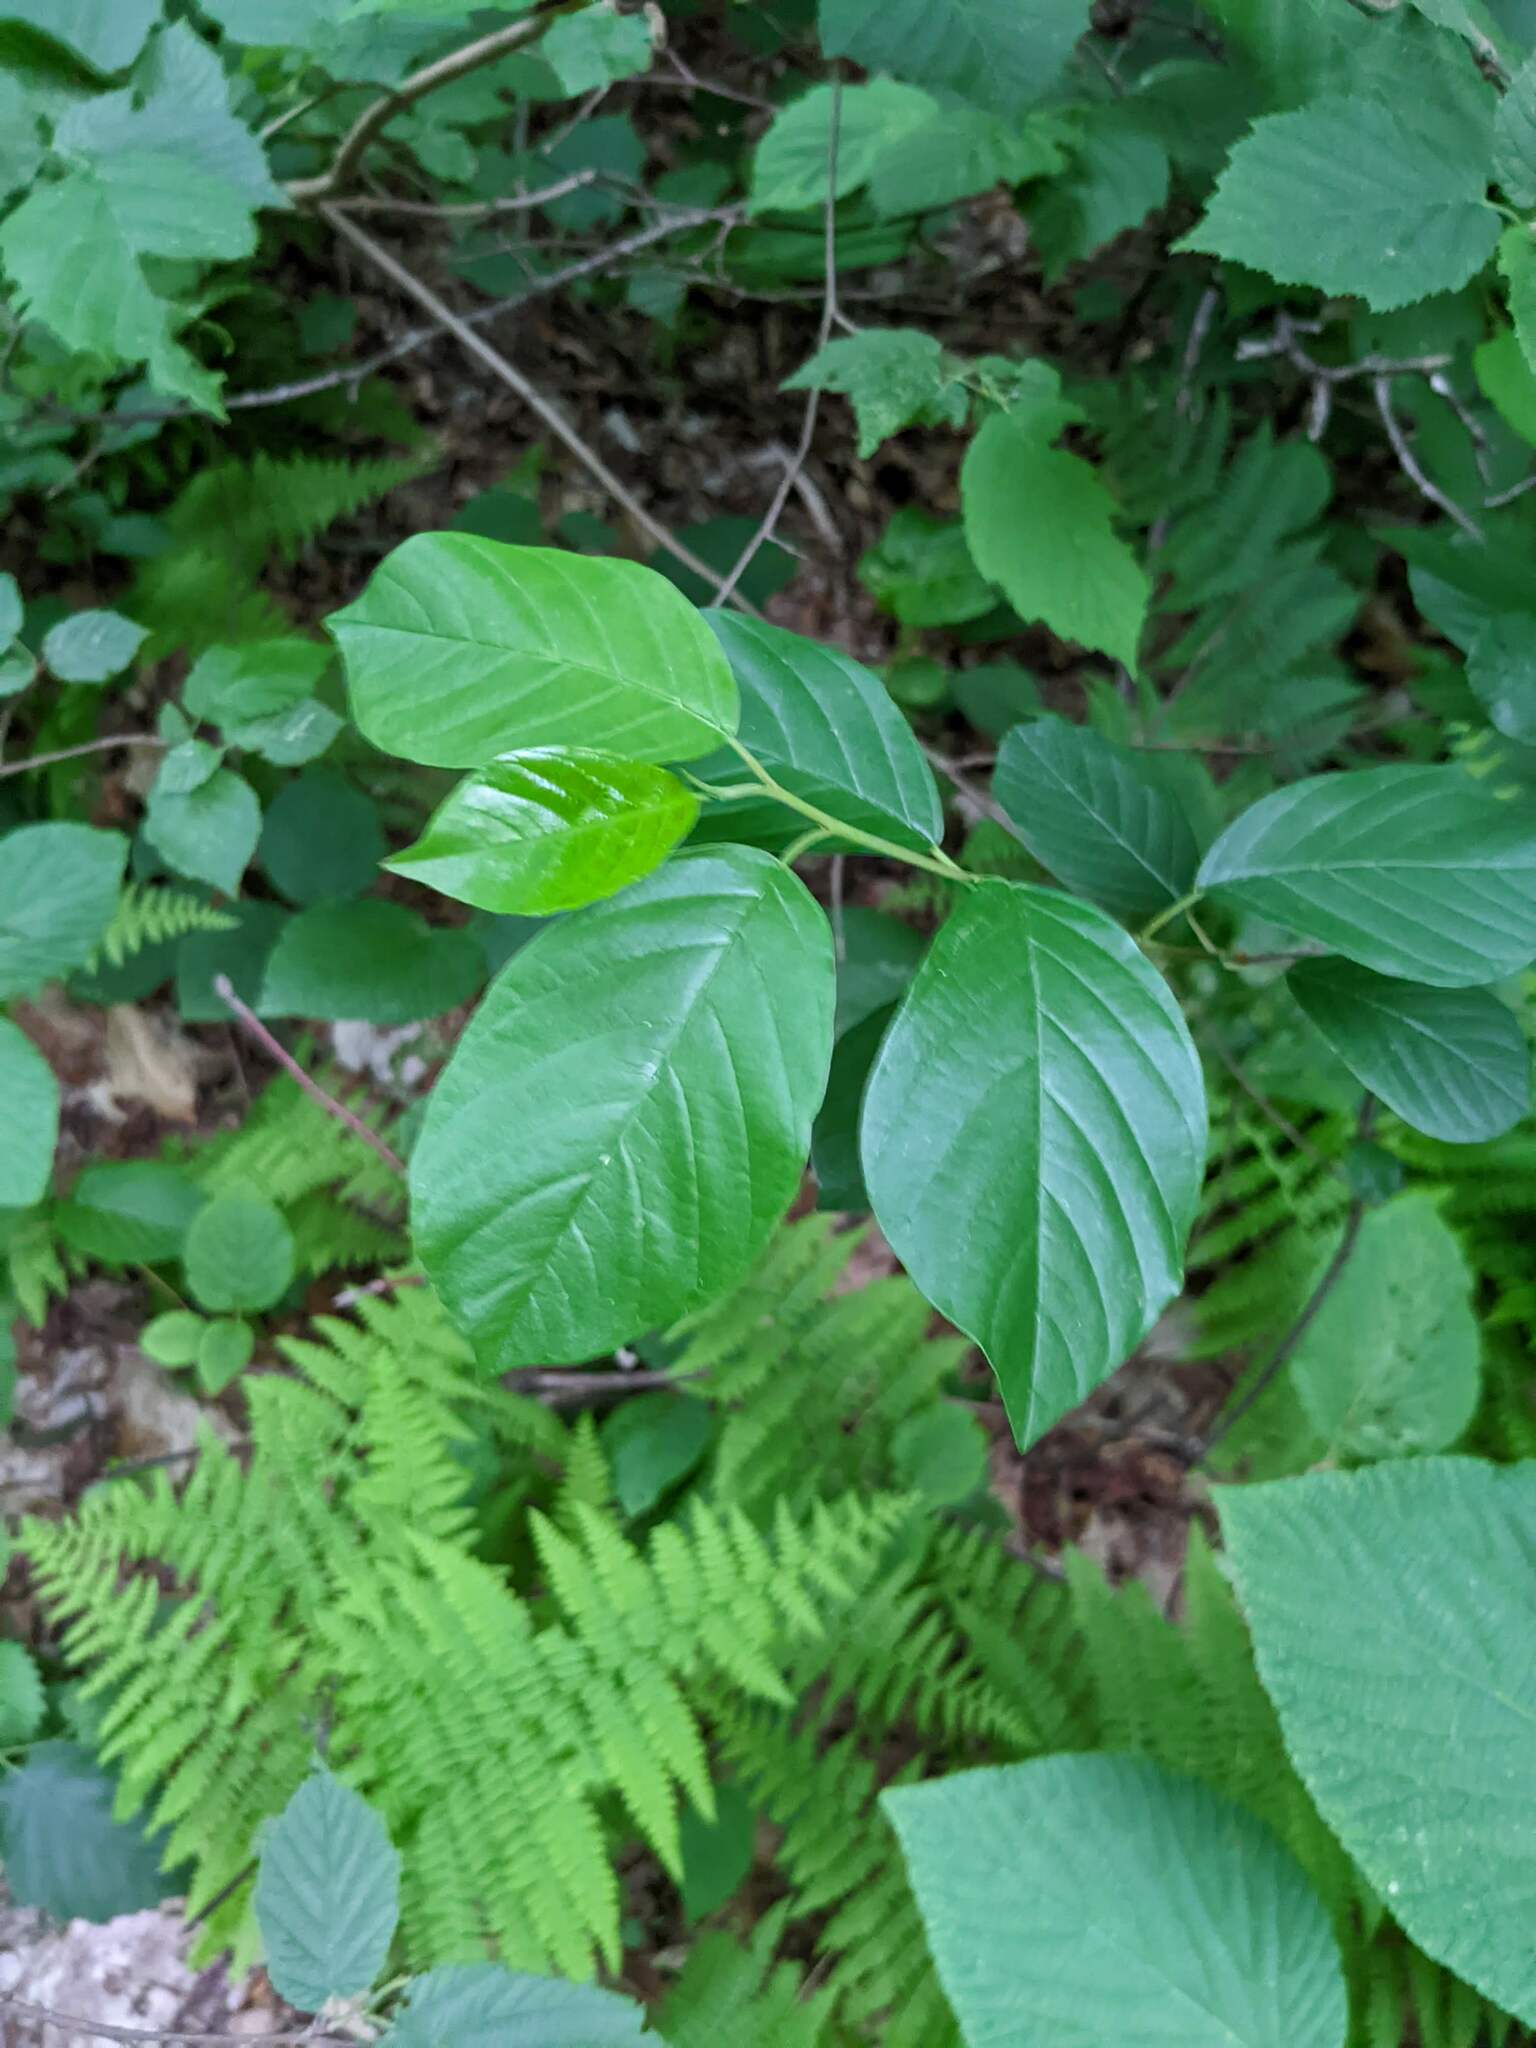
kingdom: Plantae
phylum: Tracheophyta
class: Magnoliopsida
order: Rosales
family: Rhamnaceae
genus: Frangula
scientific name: Frangula alnus
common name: Alder buckthorn
